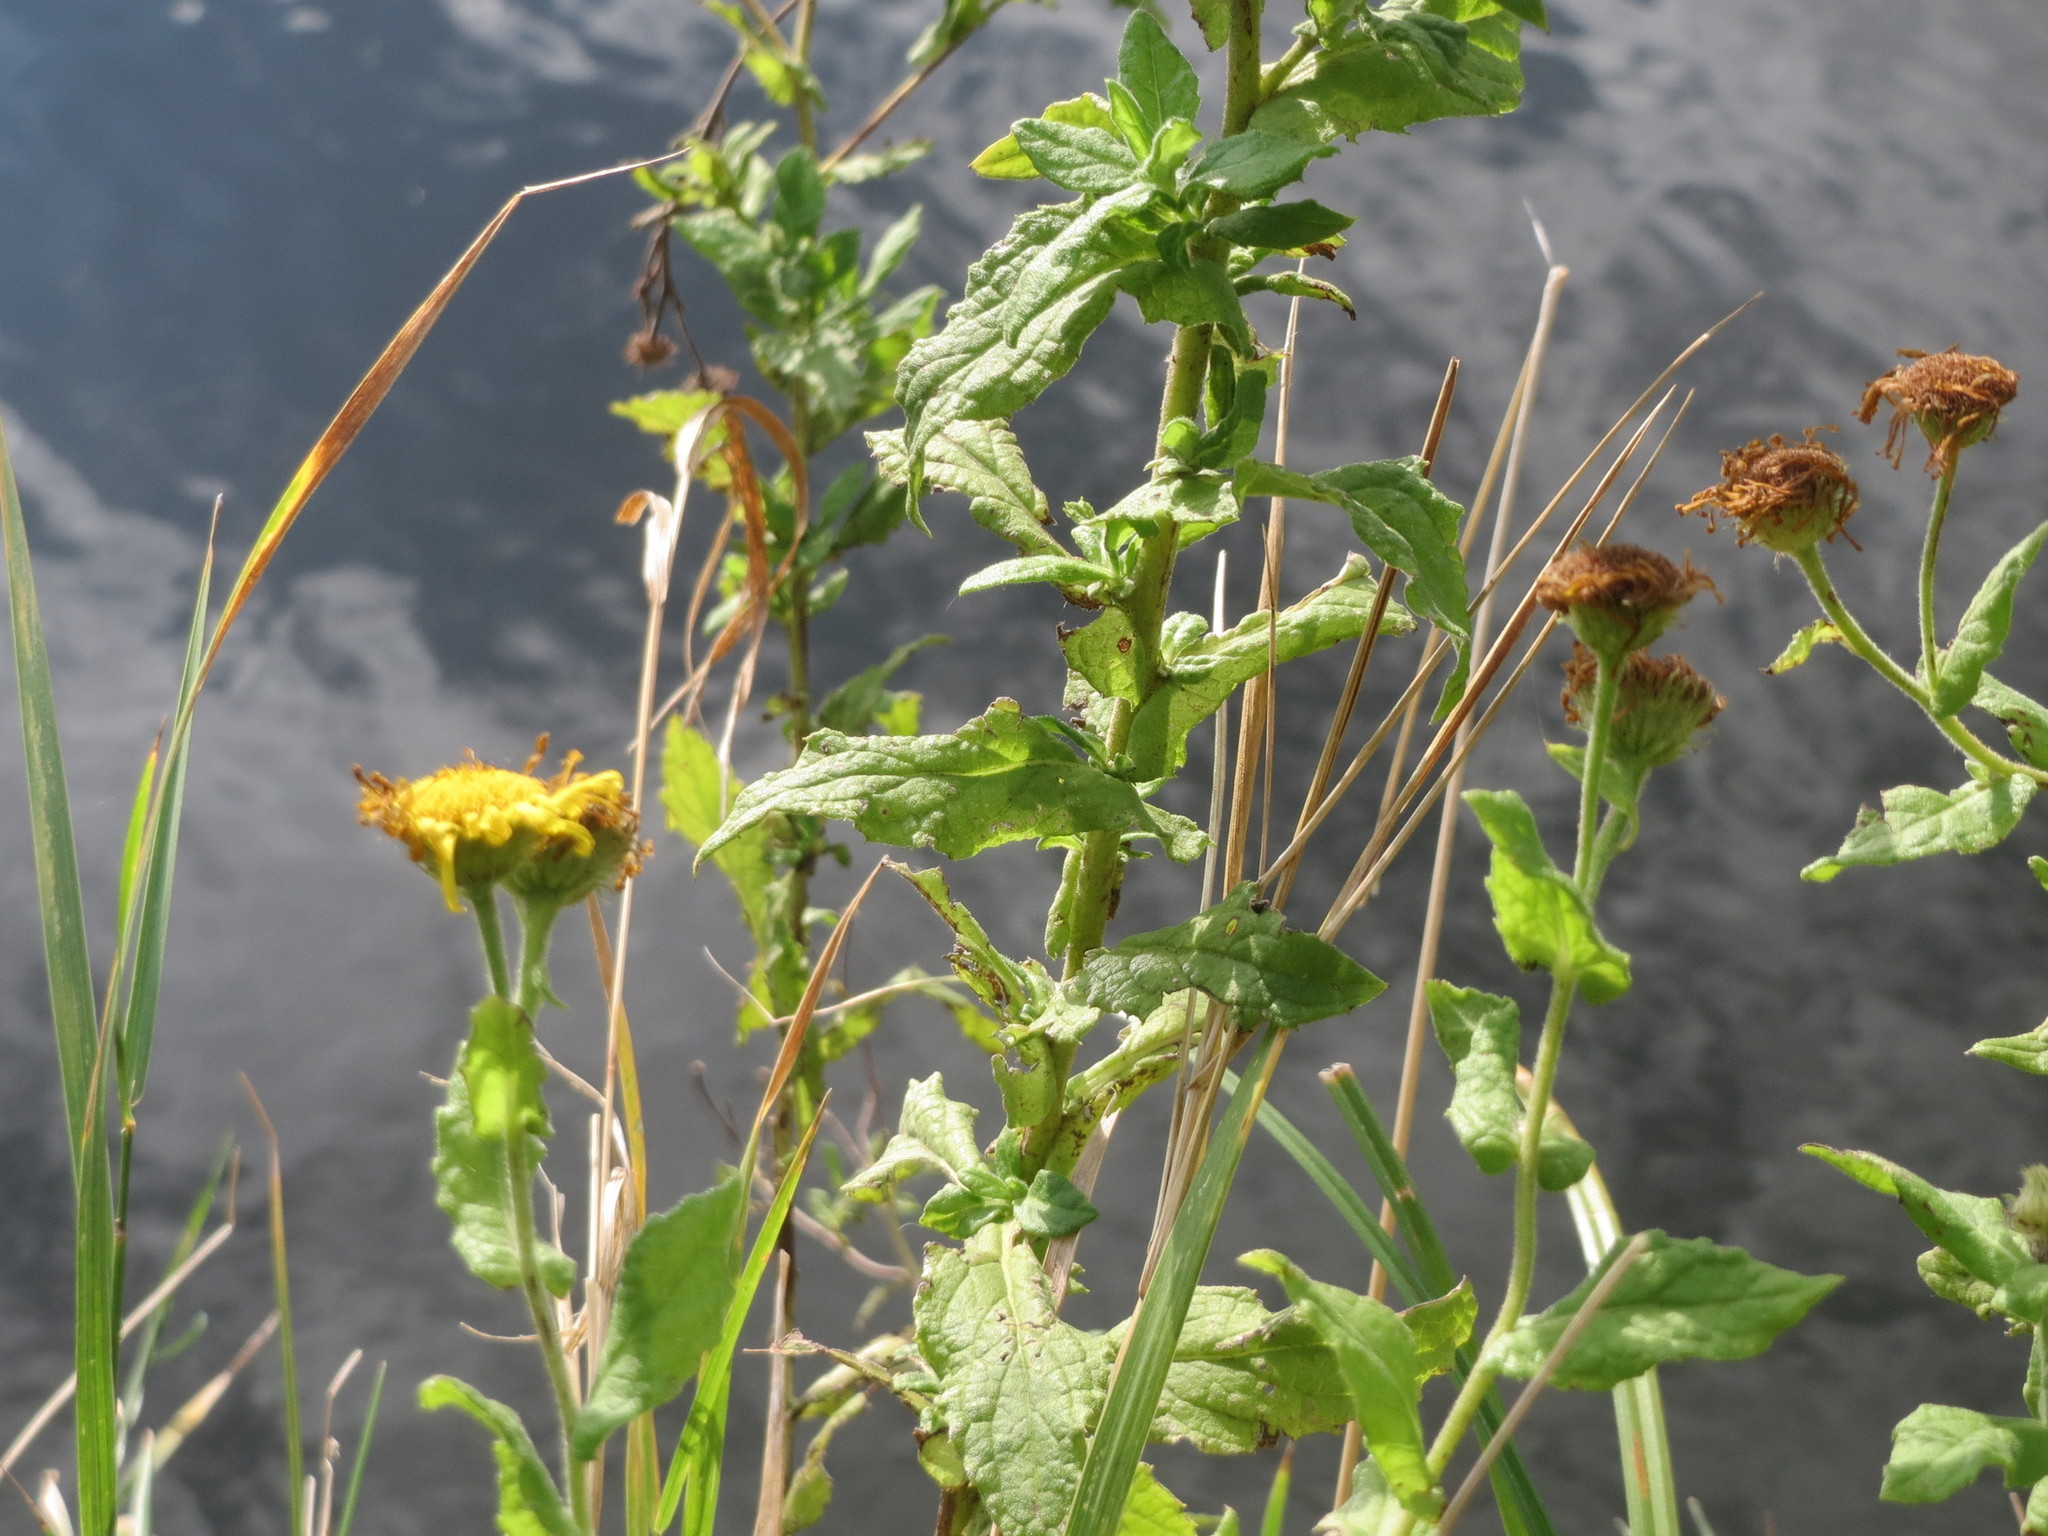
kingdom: Plantae
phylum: Tracheophyta
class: Magnoliopsida
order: Asterales
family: Asteraceae
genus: Pulicaria
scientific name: Pulicaria dysenterica
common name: Common fleabane
